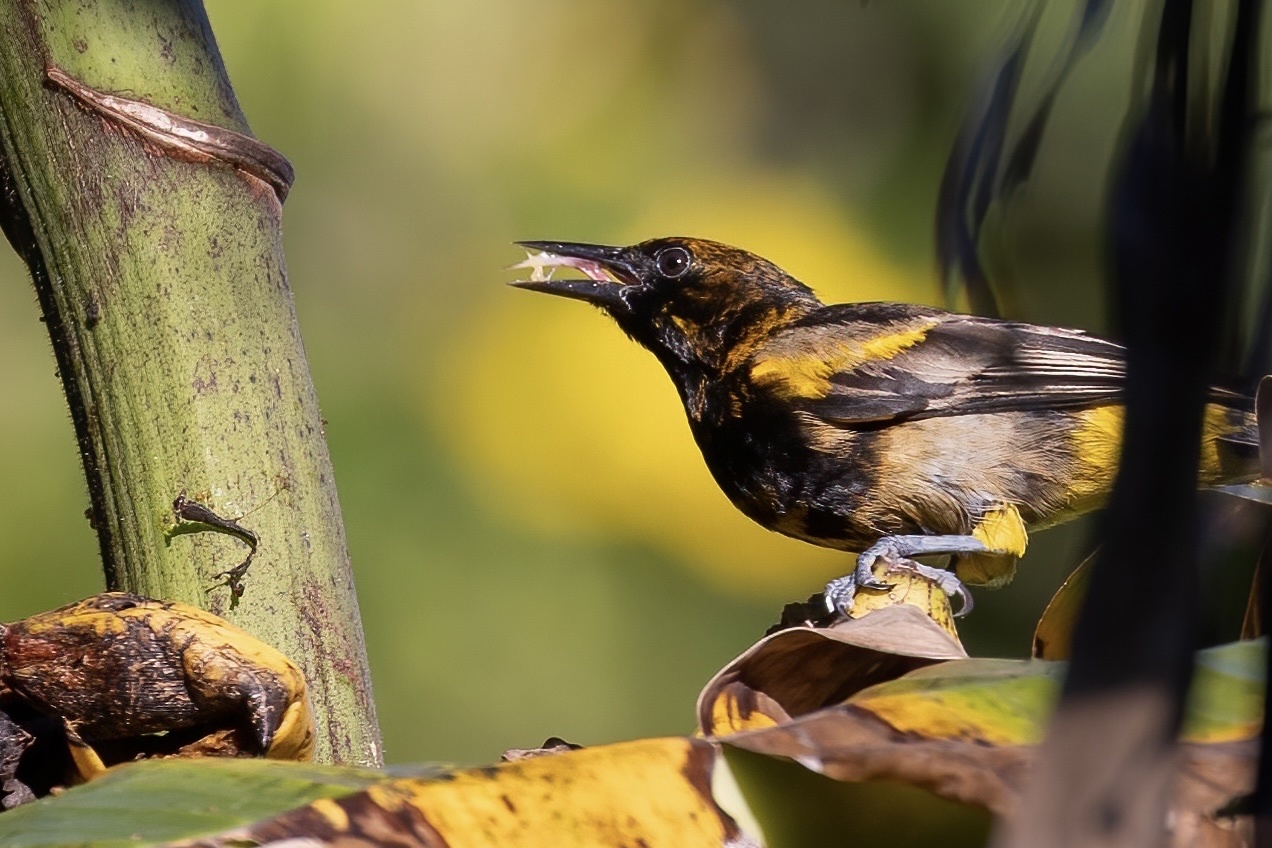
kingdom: Animalia
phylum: Chordata
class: Aves
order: Passeriformes
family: Icteridae
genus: Icterus
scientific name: Icterus portoricensis
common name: Puerto rican oriole
